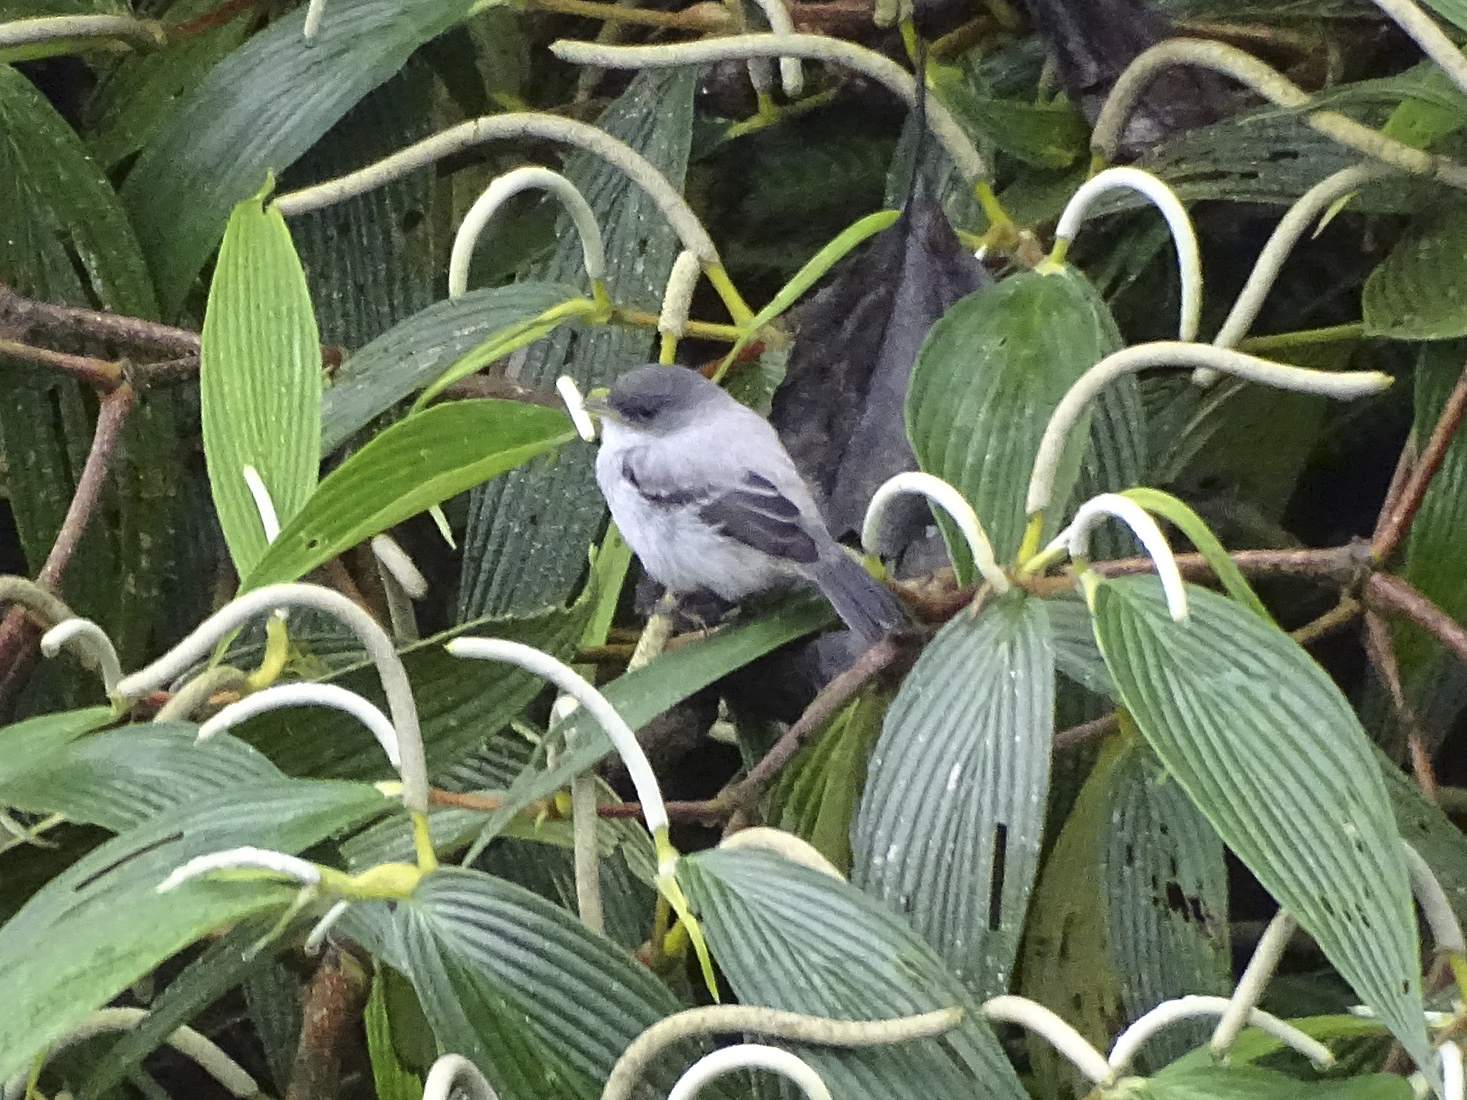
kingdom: Animalia
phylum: Chordata
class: Aves
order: Passeriformes
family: Tyrannidae
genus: Serpophaga
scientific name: Serpophaga cinerea
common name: Torrent tyrannulet
